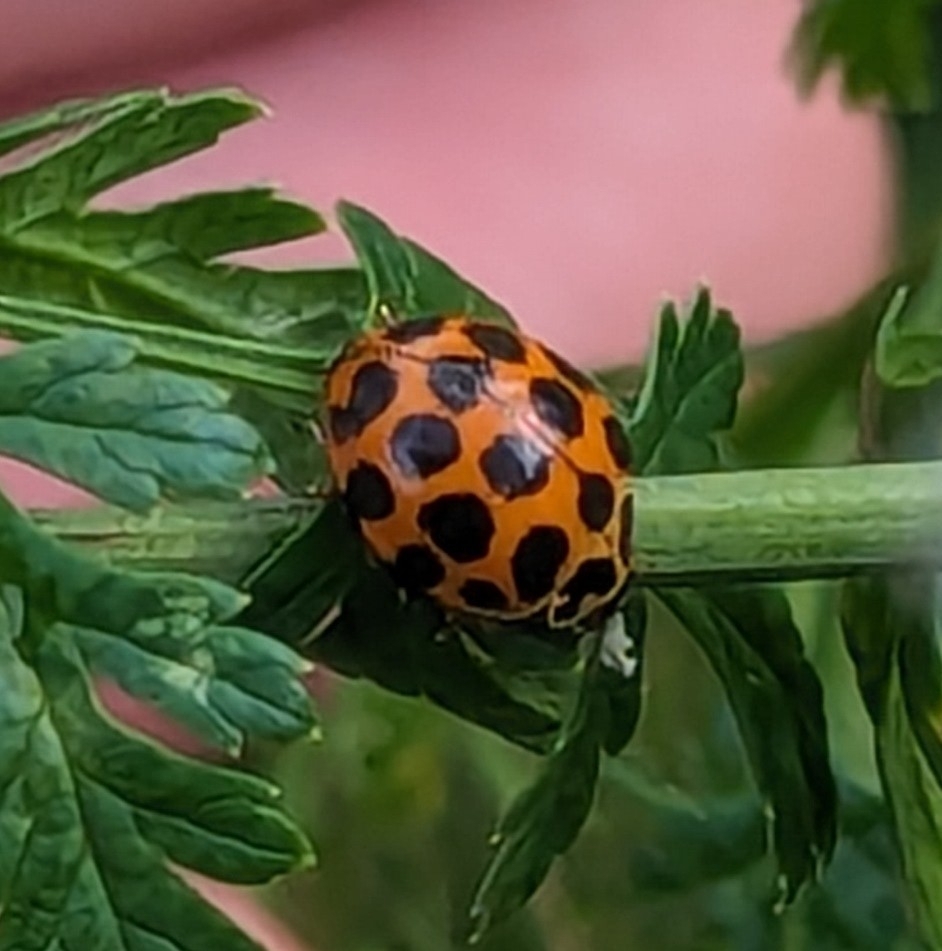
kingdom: Animalia
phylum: Arthropoda
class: Insecta
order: Coleoptera
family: Coccinellidae
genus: Harmonia
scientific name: Harmonia conformis
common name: Common spotted ladybird beetle
